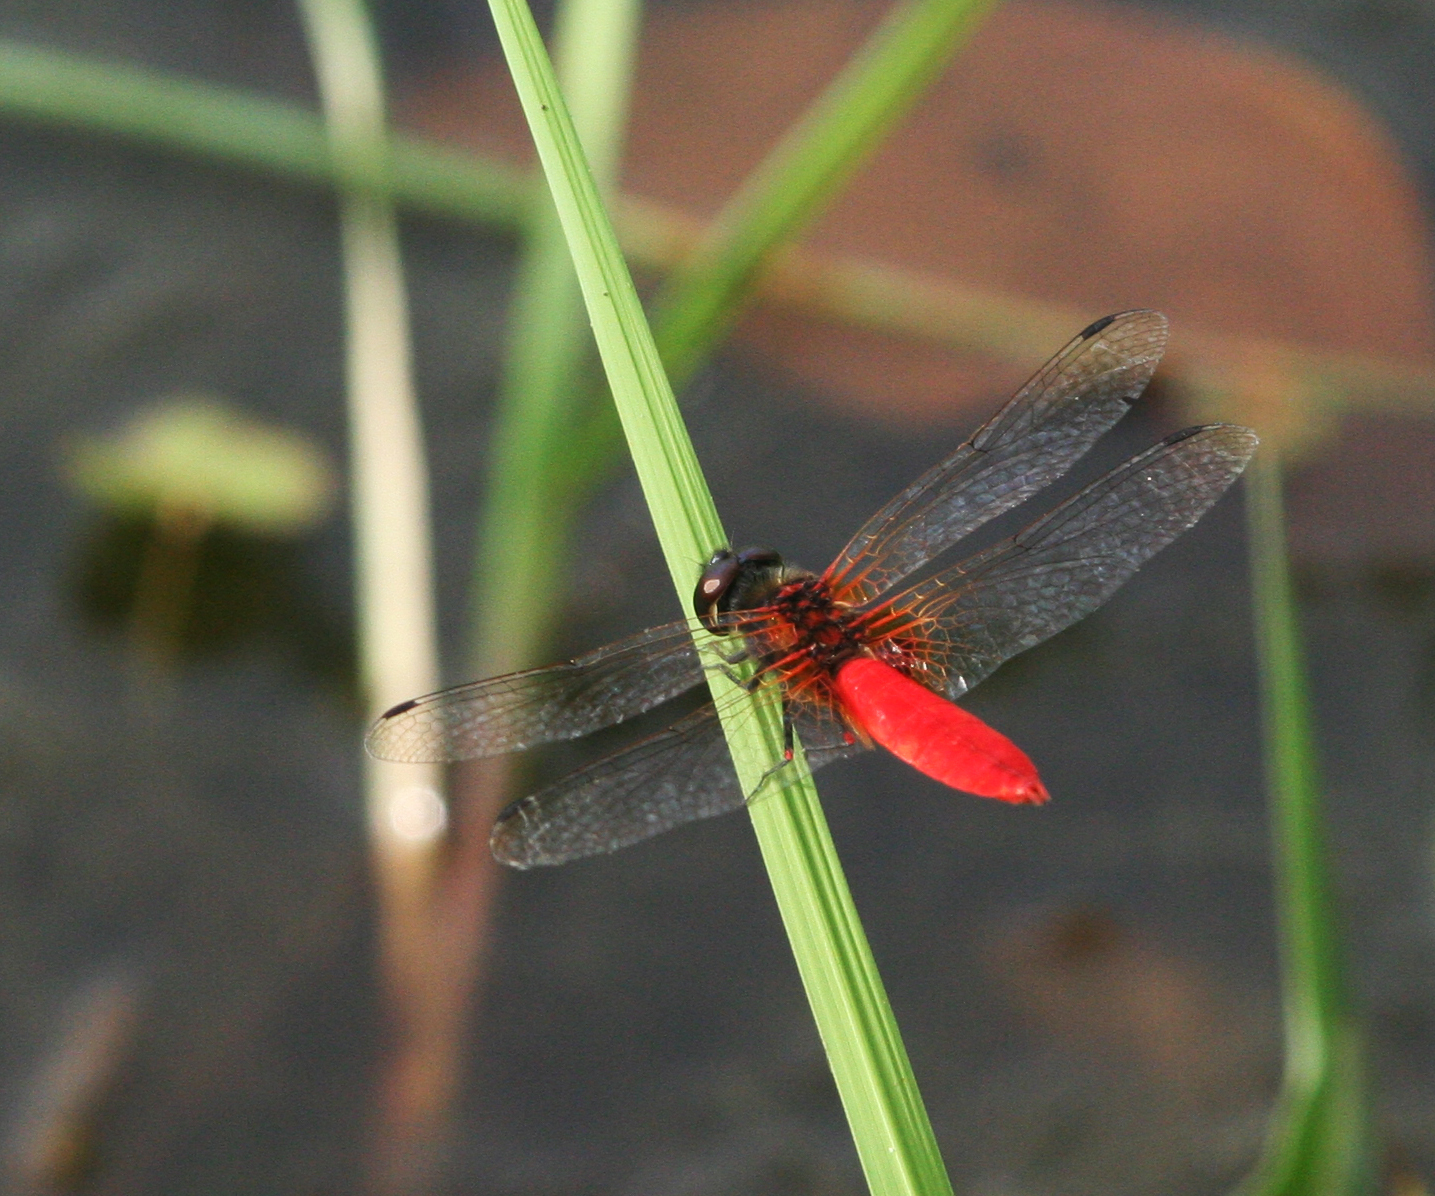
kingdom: Animalia
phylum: Arthropoda
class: Insecta
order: Odonata
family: Libellulidae
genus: Aethriamanta
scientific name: Aethriamanta brevipennis
